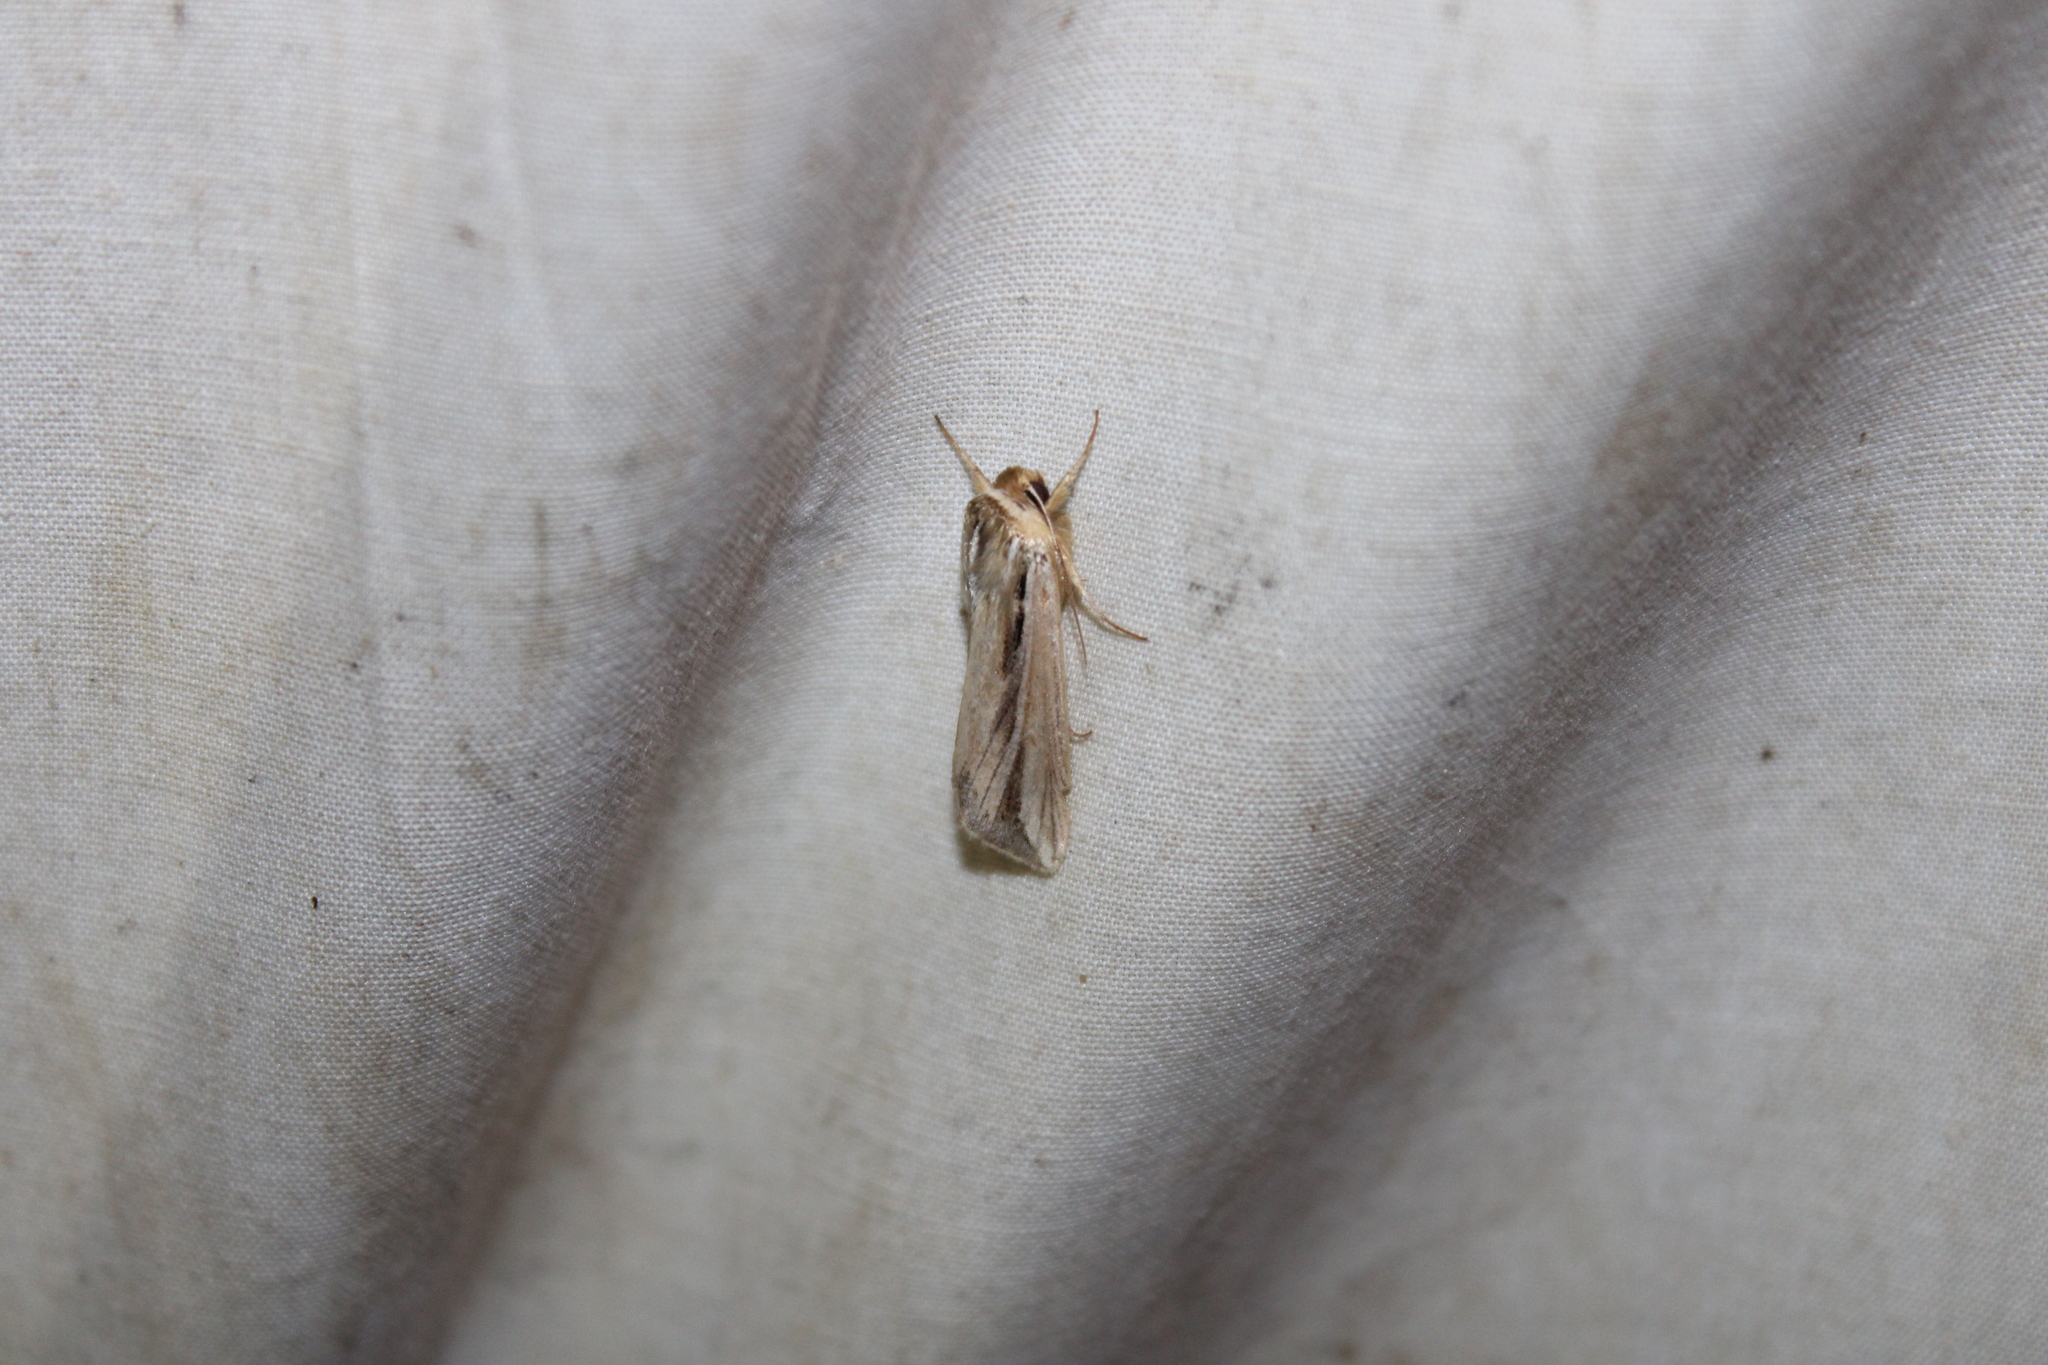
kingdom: Animalia
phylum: Arthropoda
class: Insecta
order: Lepidoptera
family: Noctuidae
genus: Dargida
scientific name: Dargida diffusa
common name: Wheat head armyworm
